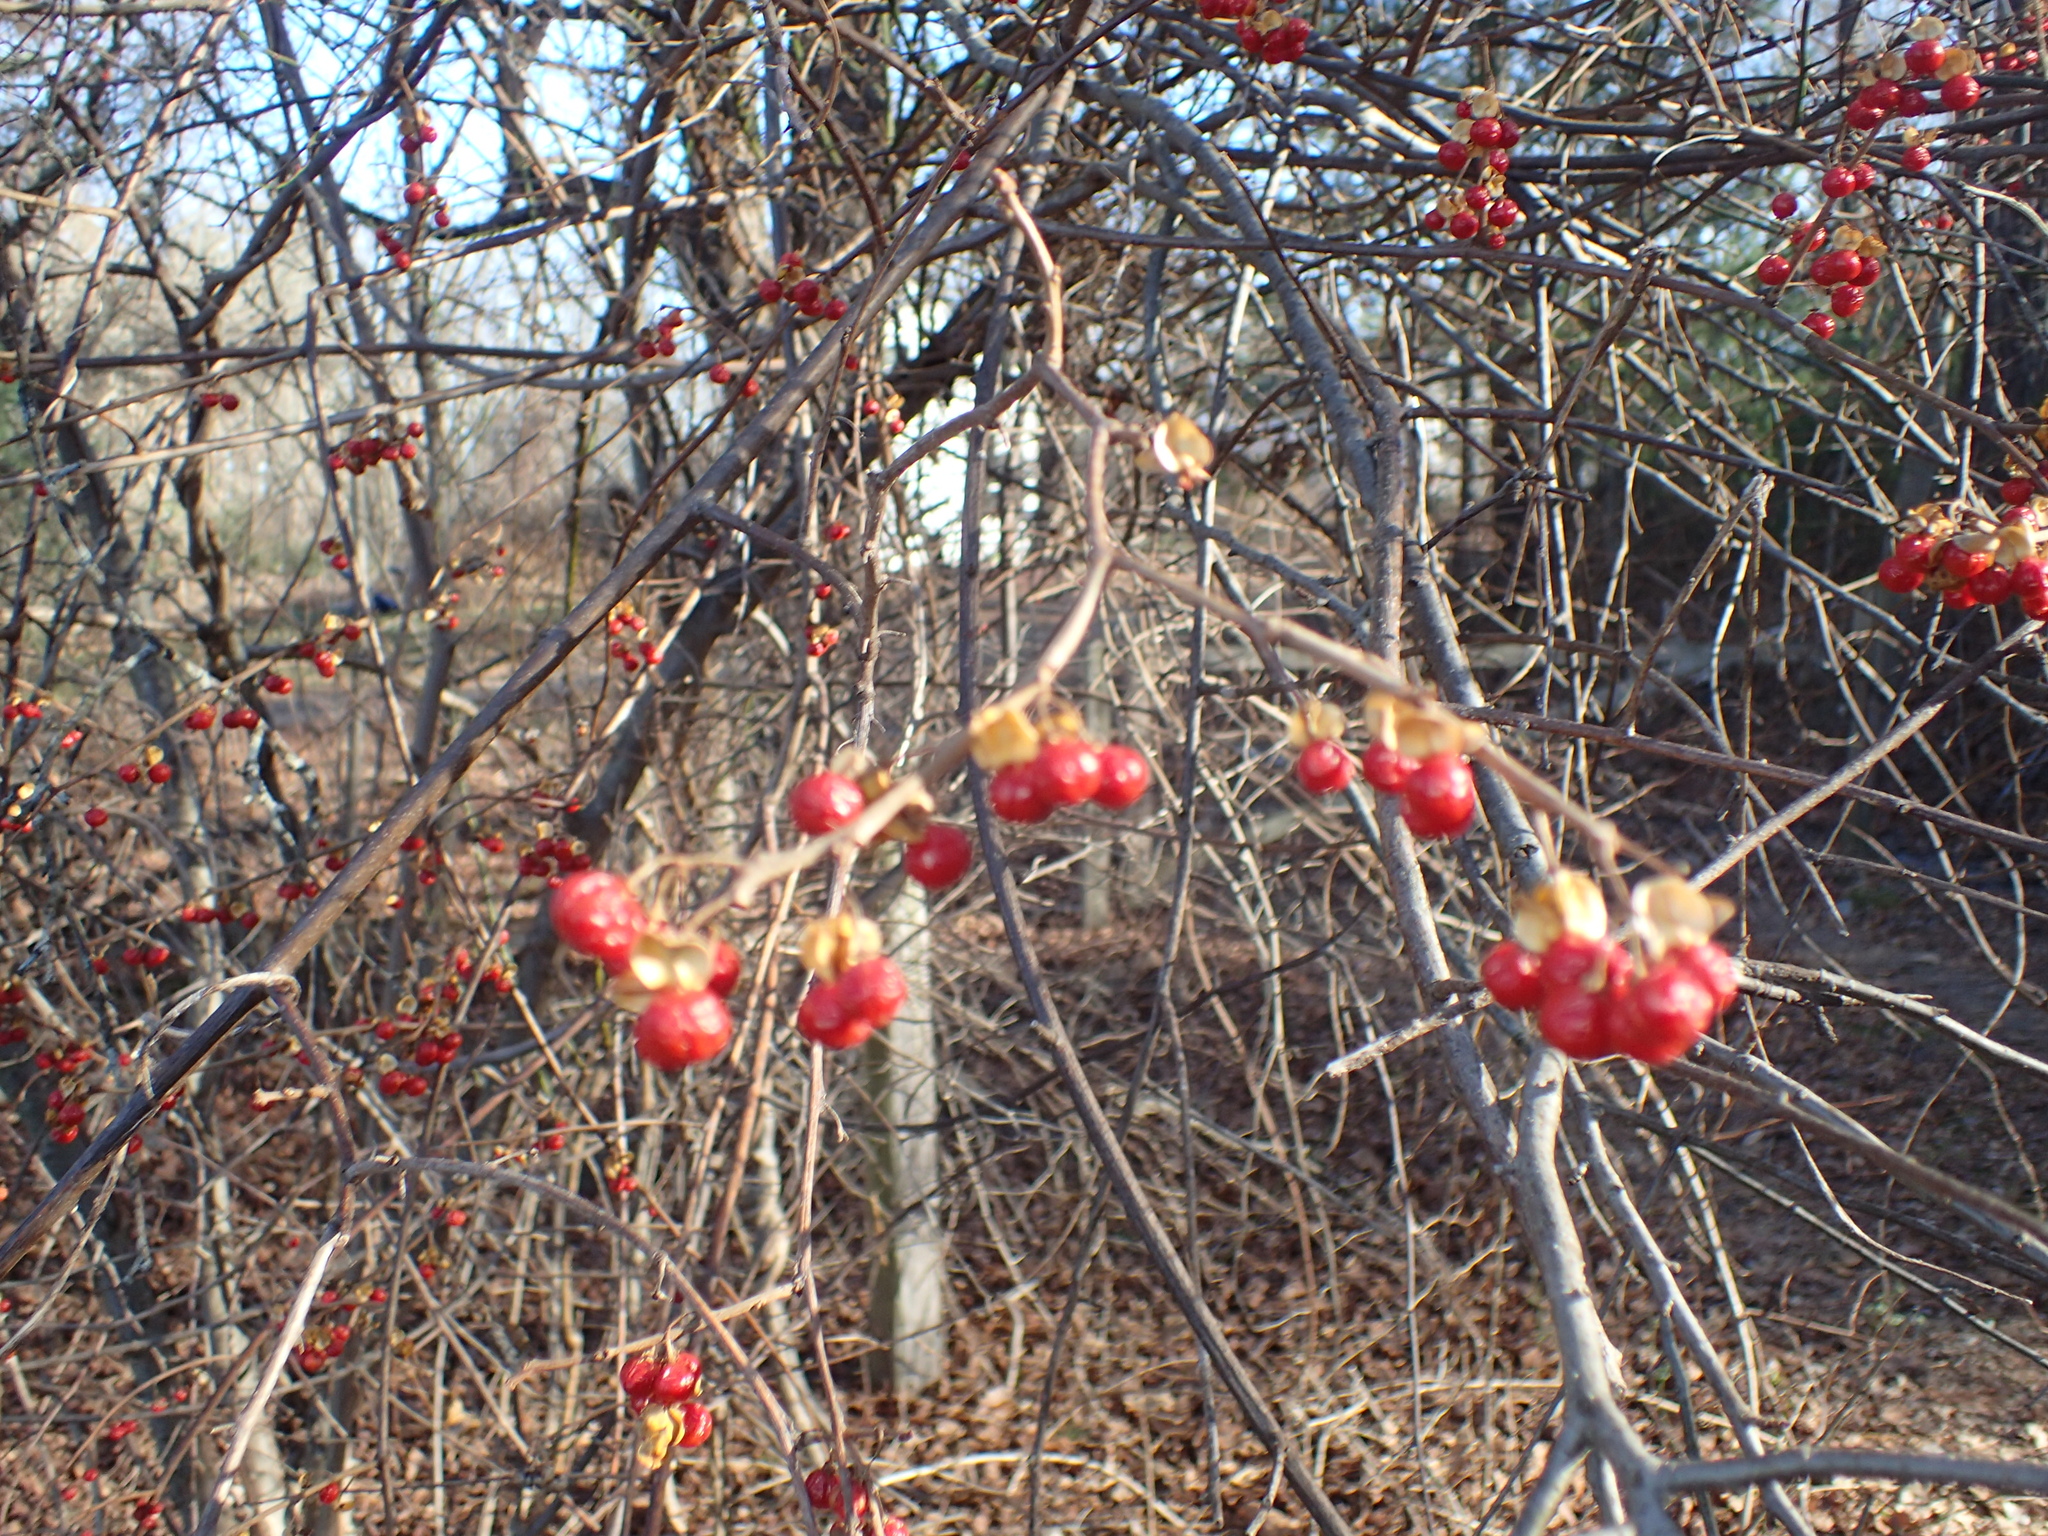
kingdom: Plantae
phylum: Tracheophyta
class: Magnoliopsida
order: Celastrales
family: Celastraceae
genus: Celastrus
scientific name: Celastrus orbiculatus
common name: Oriental bittersweet
